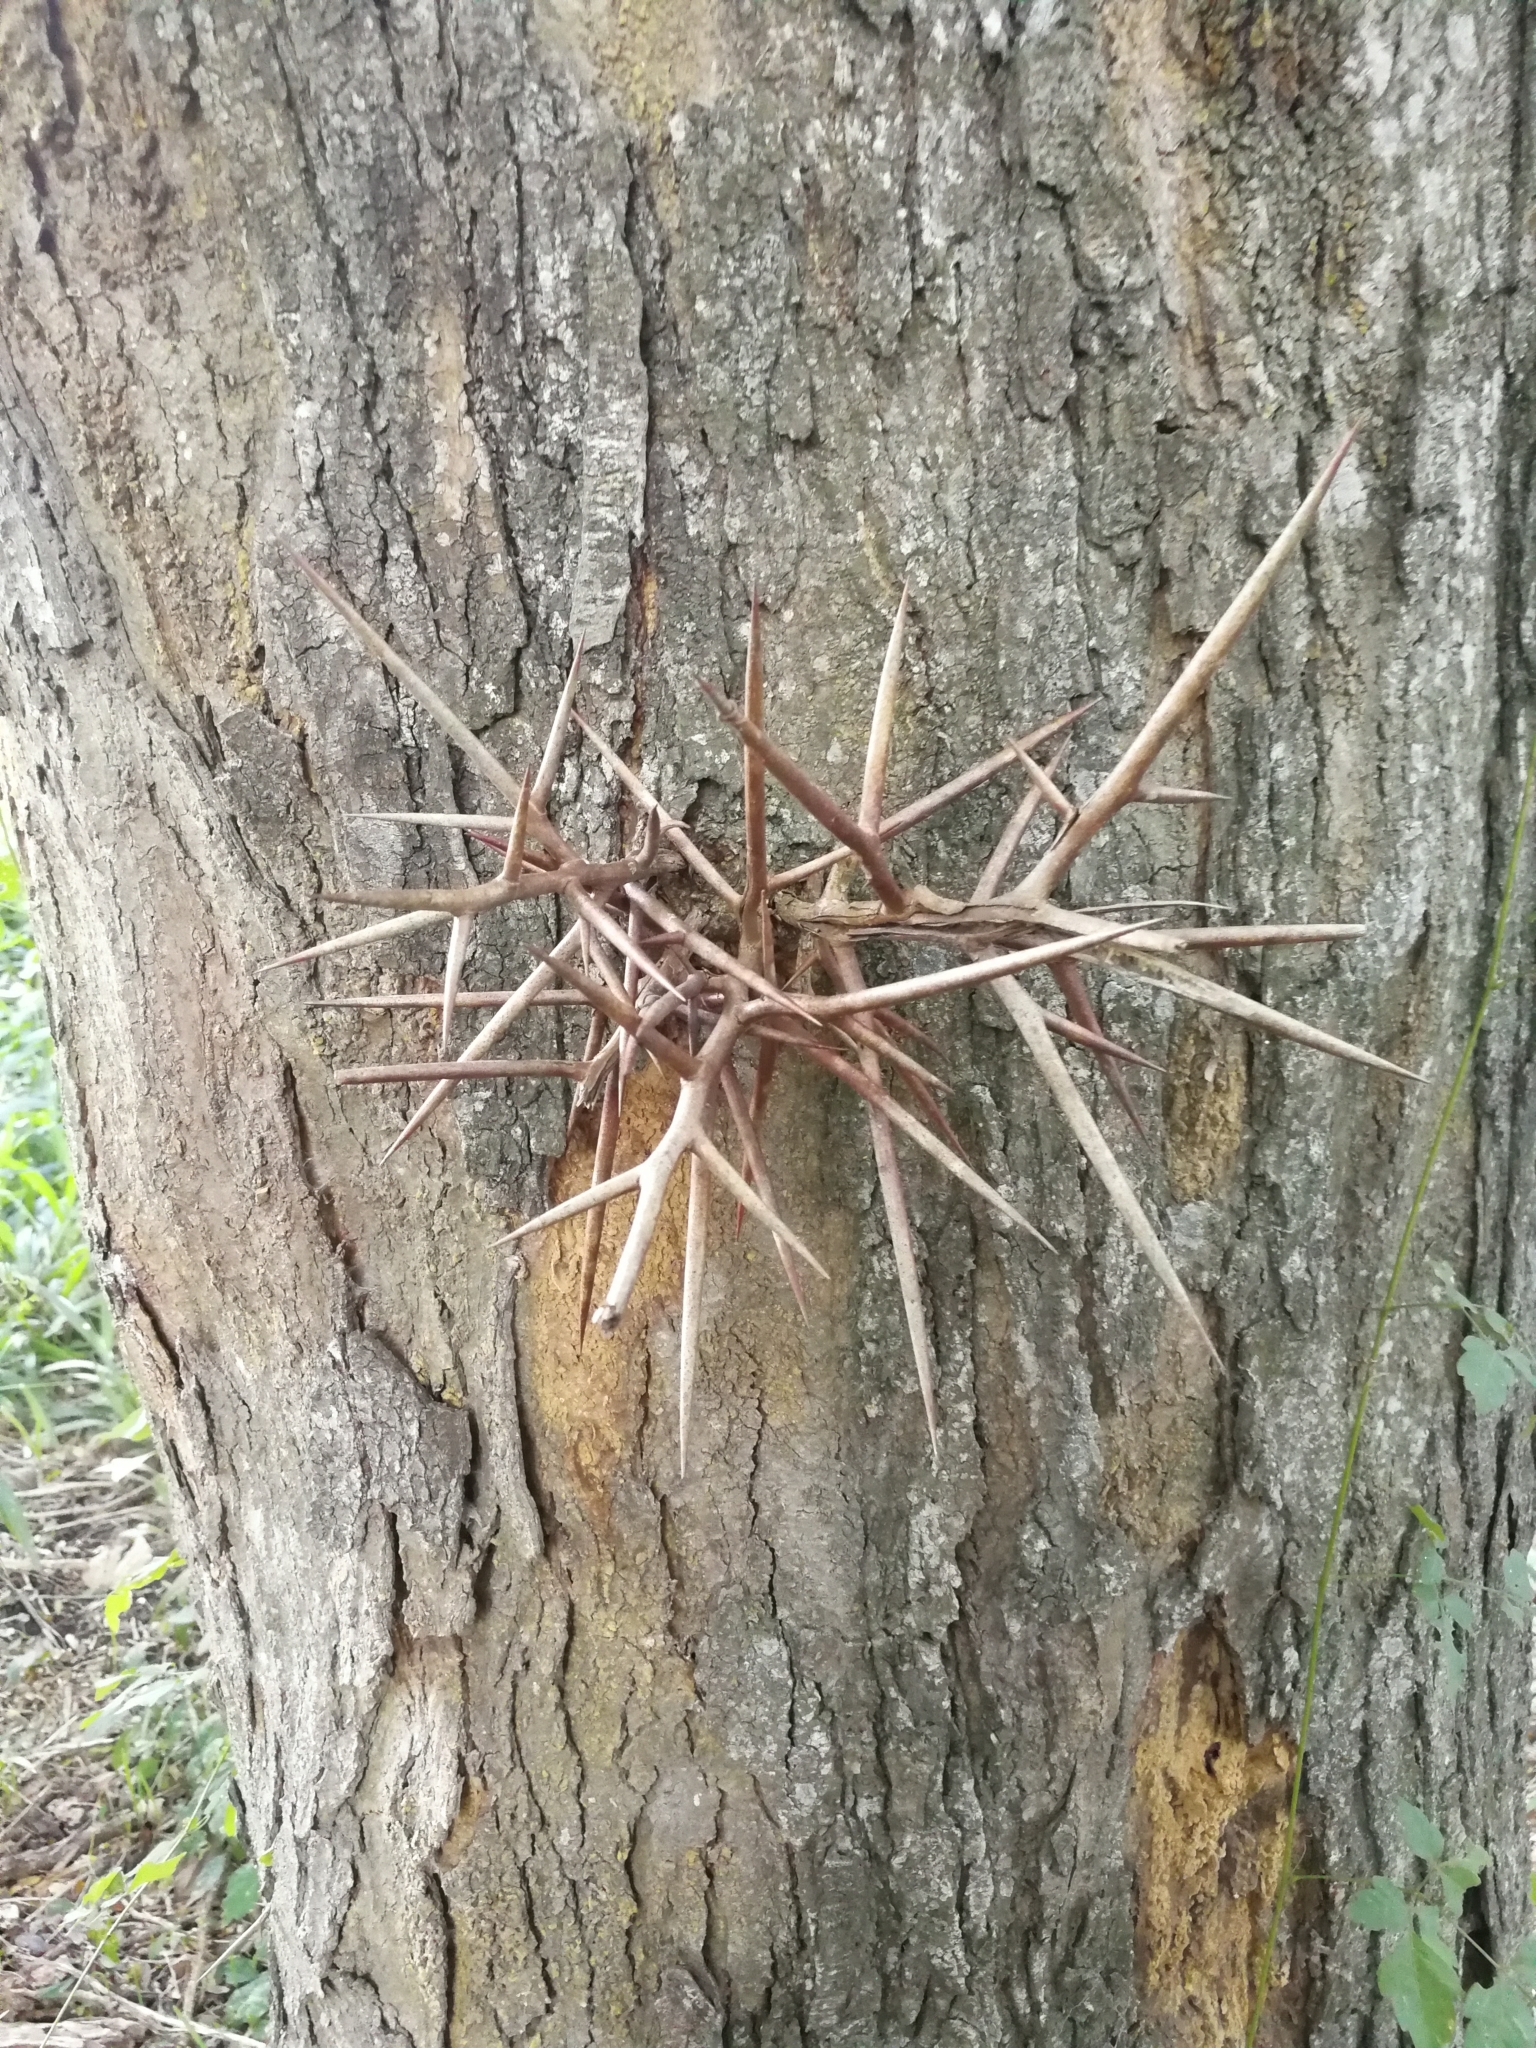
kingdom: Plantae
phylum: Tracheophyta
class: Magnoliopsida
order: Fabales
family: Fabaceae
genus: Gleditsia
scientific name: Gleditsia triacanthos
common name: Common honeylocust
